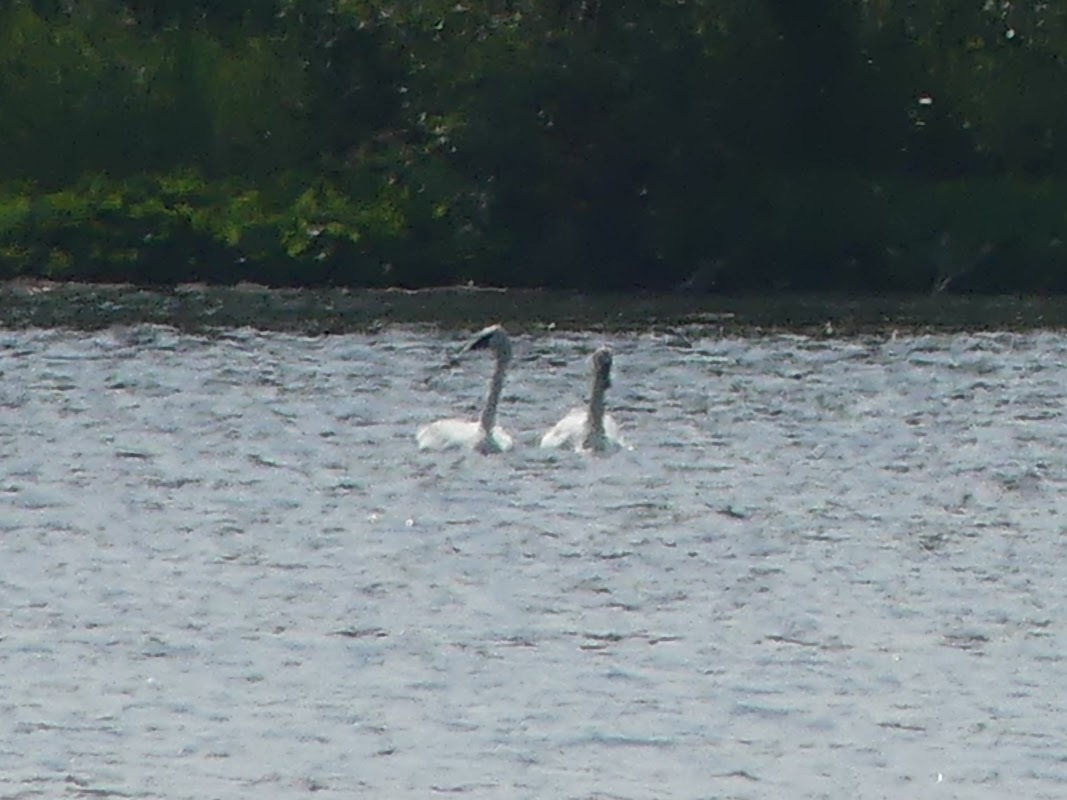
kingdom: Animalia
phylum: Chordata
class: Aves
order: Anseriformes
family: Anatidae
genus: Cygnus
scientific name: Cygnus buccinator
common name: Trumpeter swan
